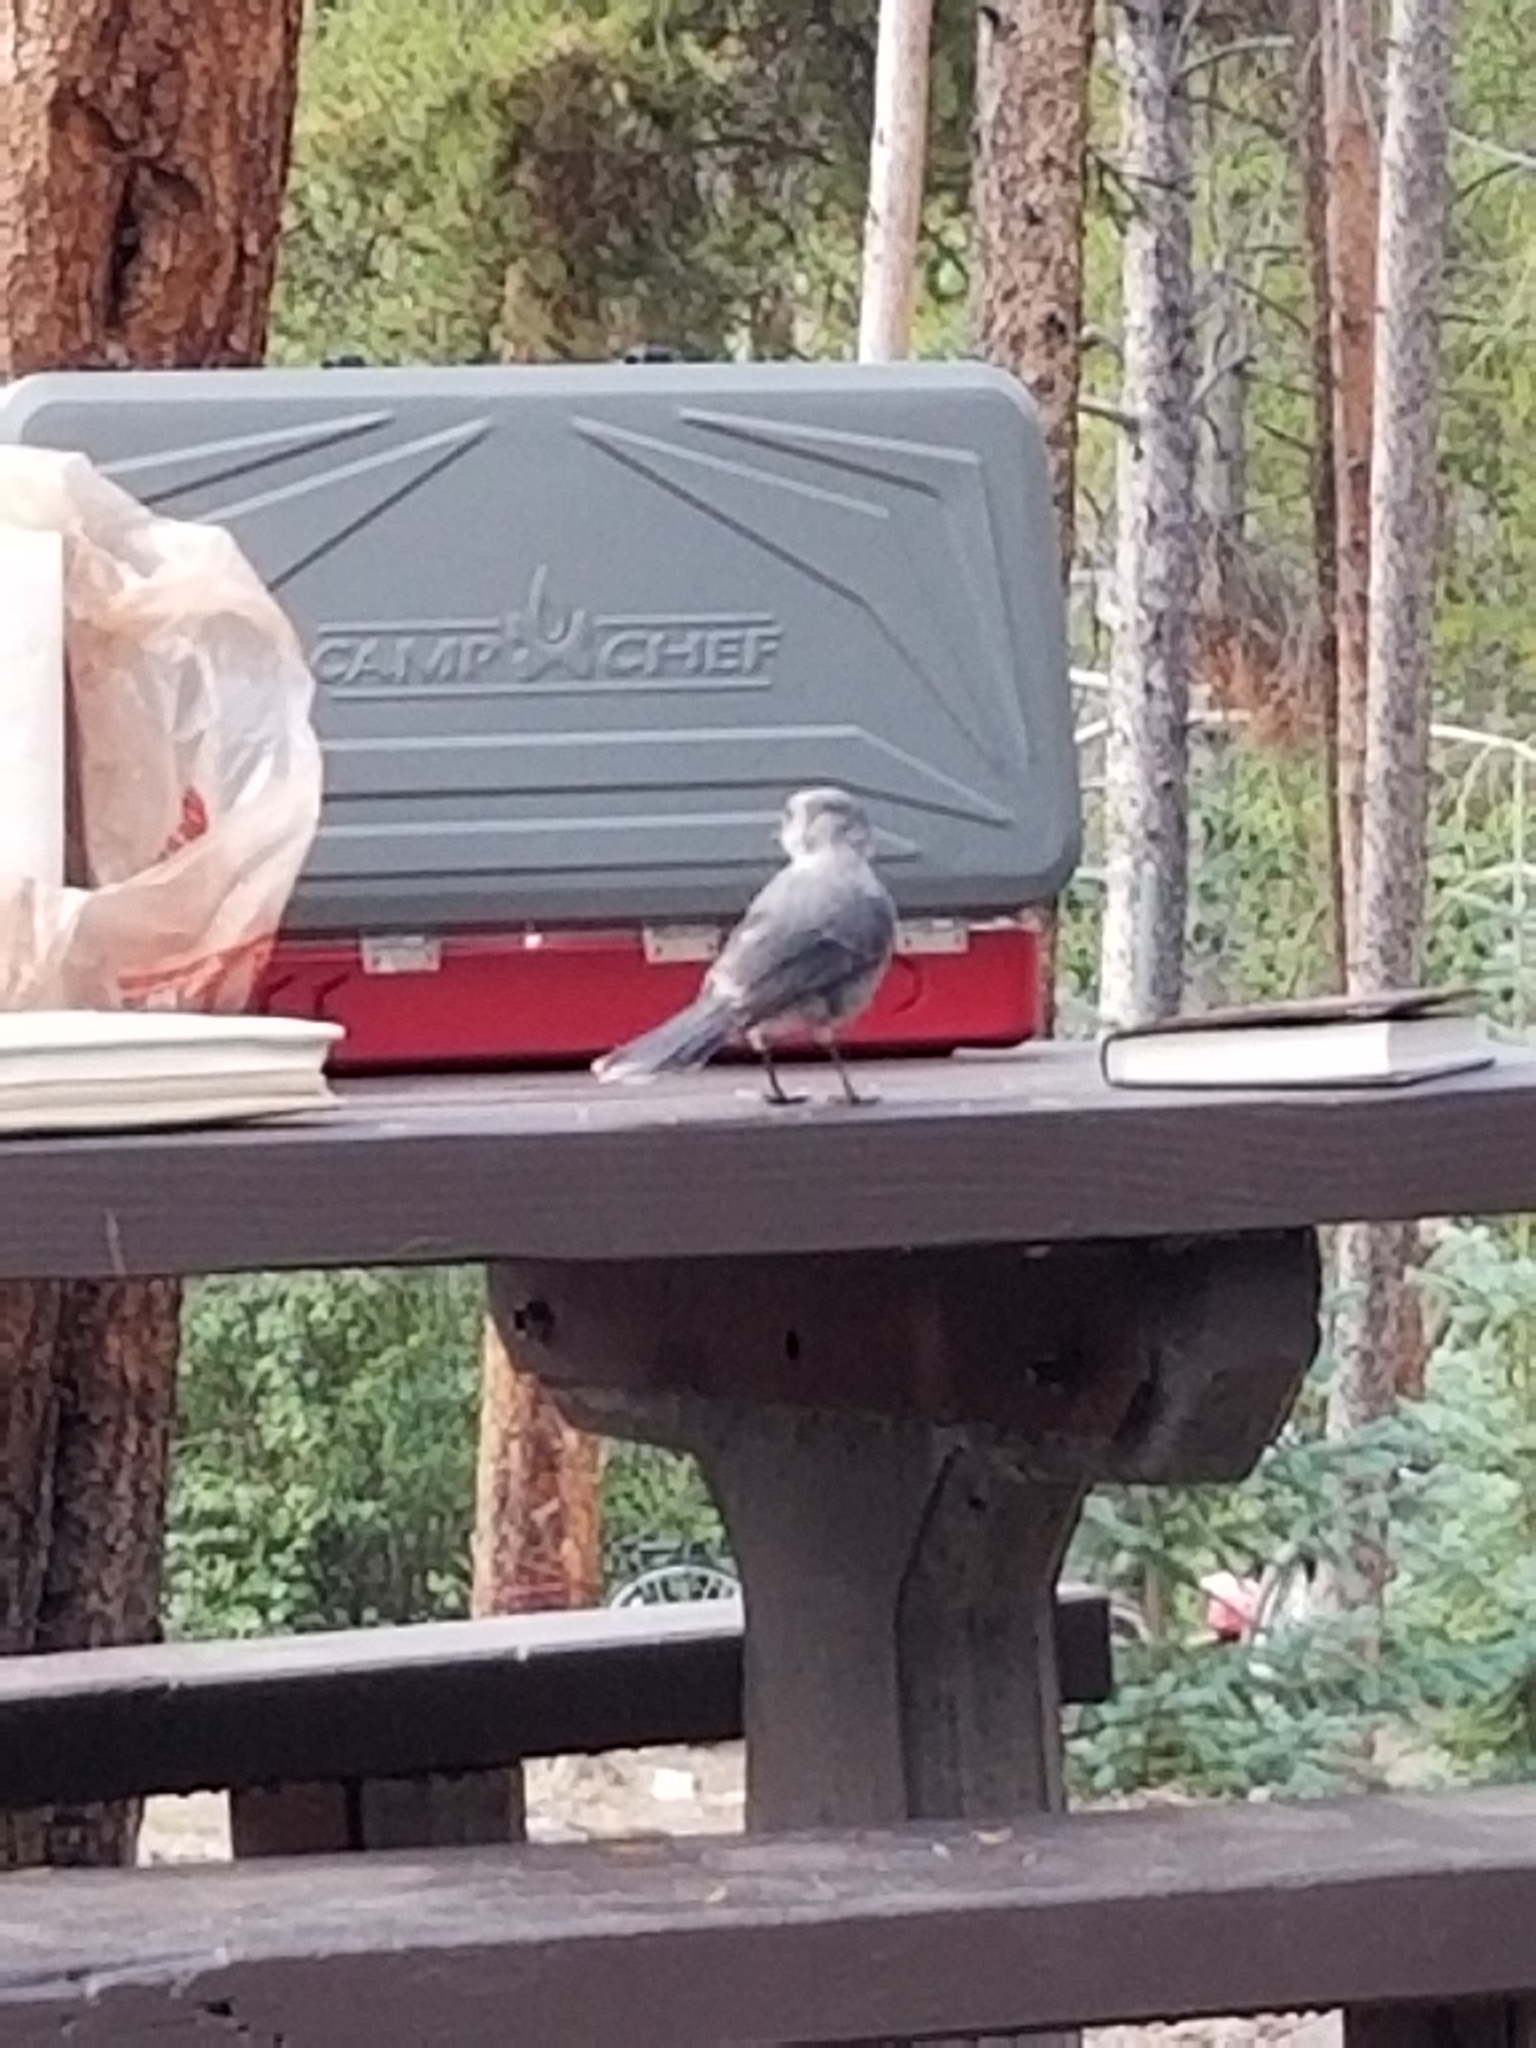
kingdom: Animalia
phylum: Chordata
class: Aves
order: Passeriformes
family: Corvidae
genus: Perisoreus
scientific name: Perisoreus canadensis
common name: Gray jay
